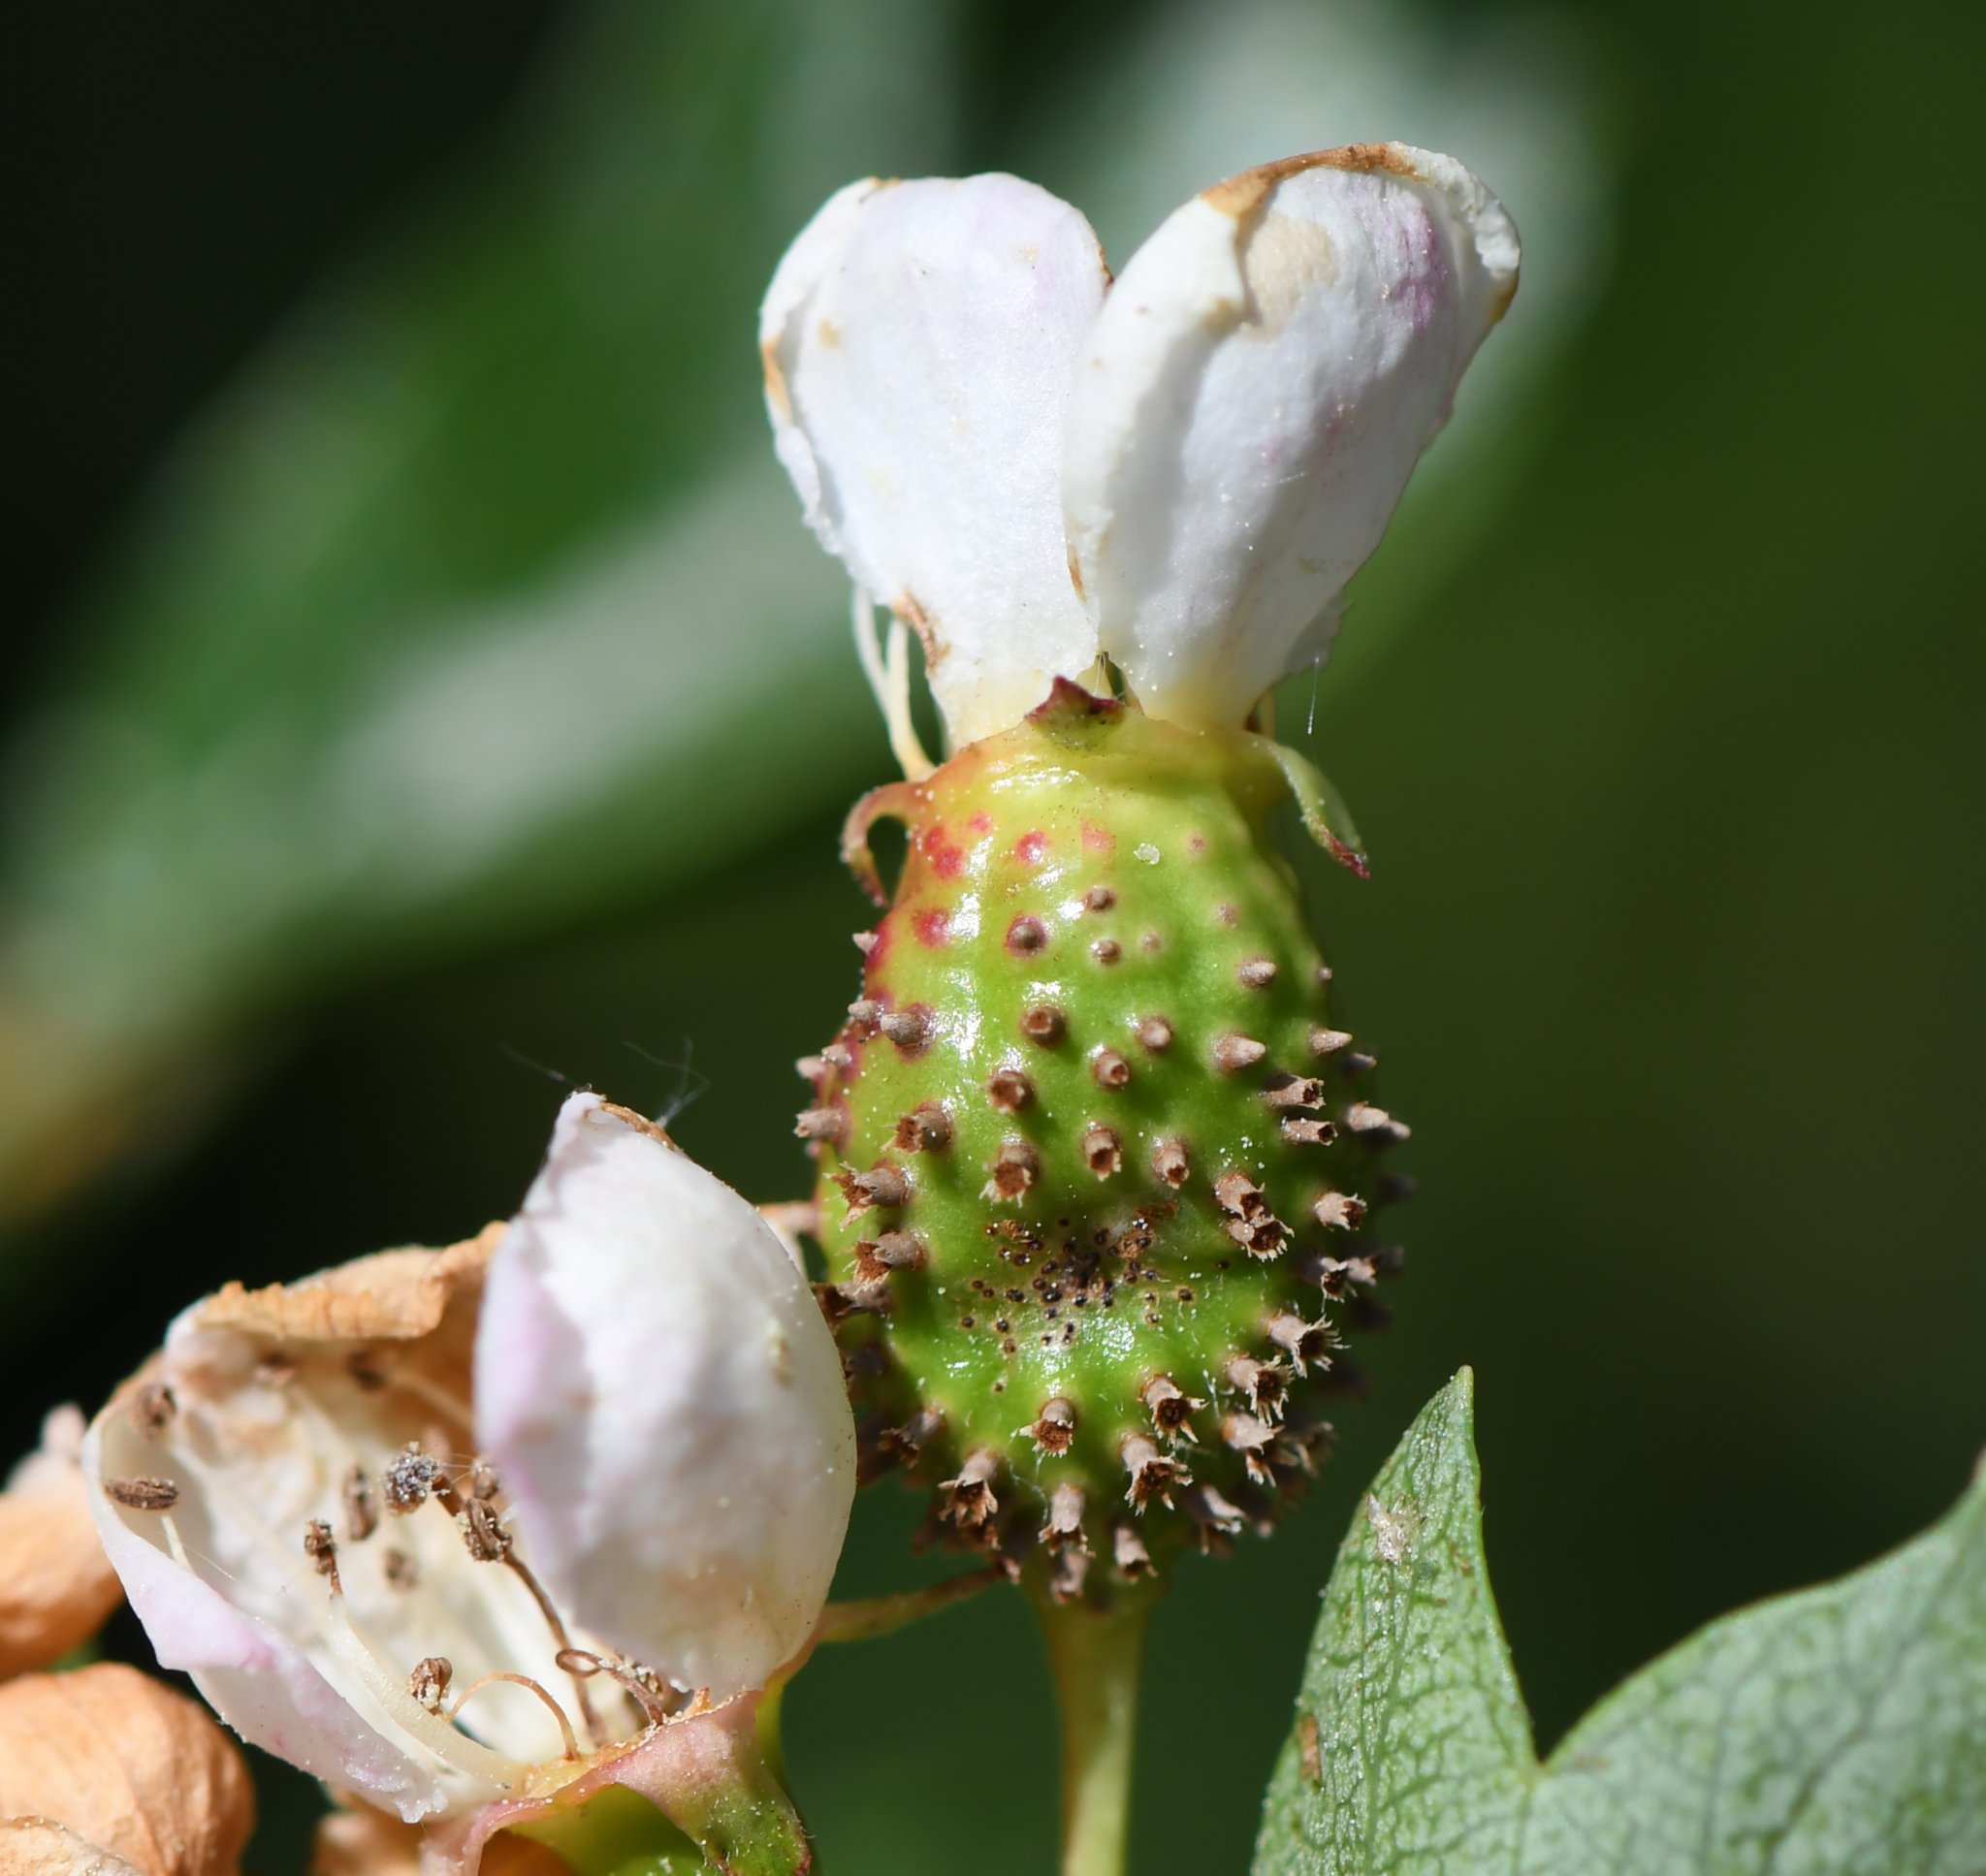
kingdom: Fungi
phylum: Basidiomycota
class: Pucciniomycetes
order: Pucciniales
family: Gymnosporangiaceae
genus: Gymnosporangium
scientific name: Gymnosporangium clavariiforme
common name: Tongues of fire
